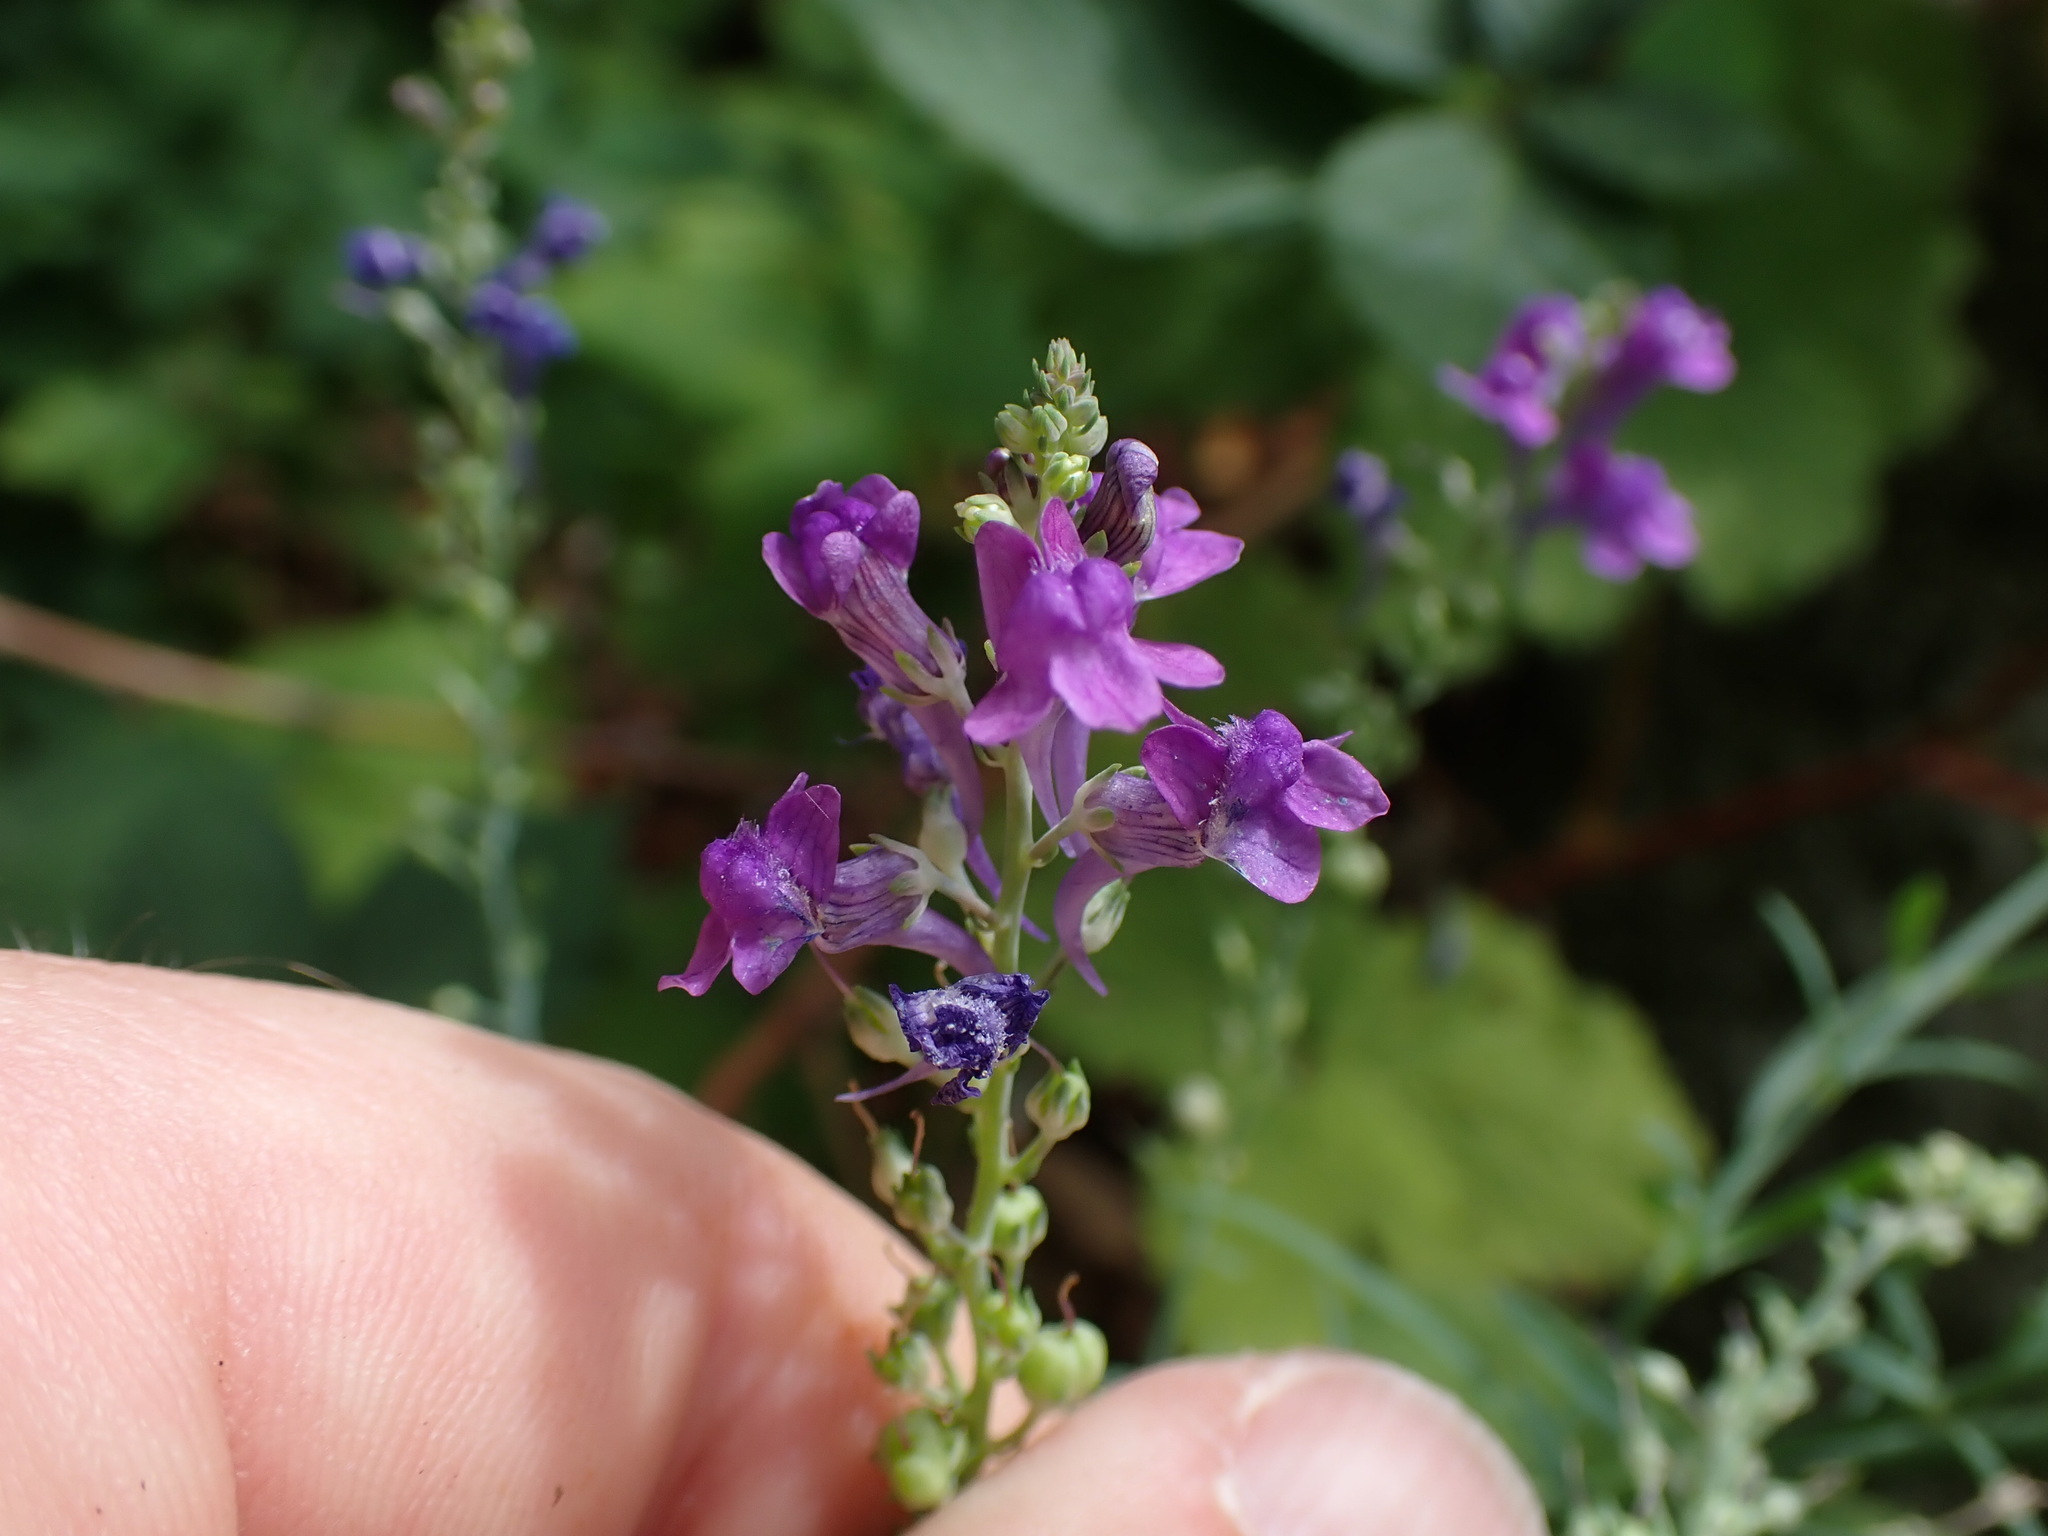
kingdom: Plantae
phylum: Tracheophyta
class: Magnoliopsida
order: Lamiales
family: Plantaginaceae
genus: Linaria
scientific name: Linaria purpurea
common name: Purple toadflax
